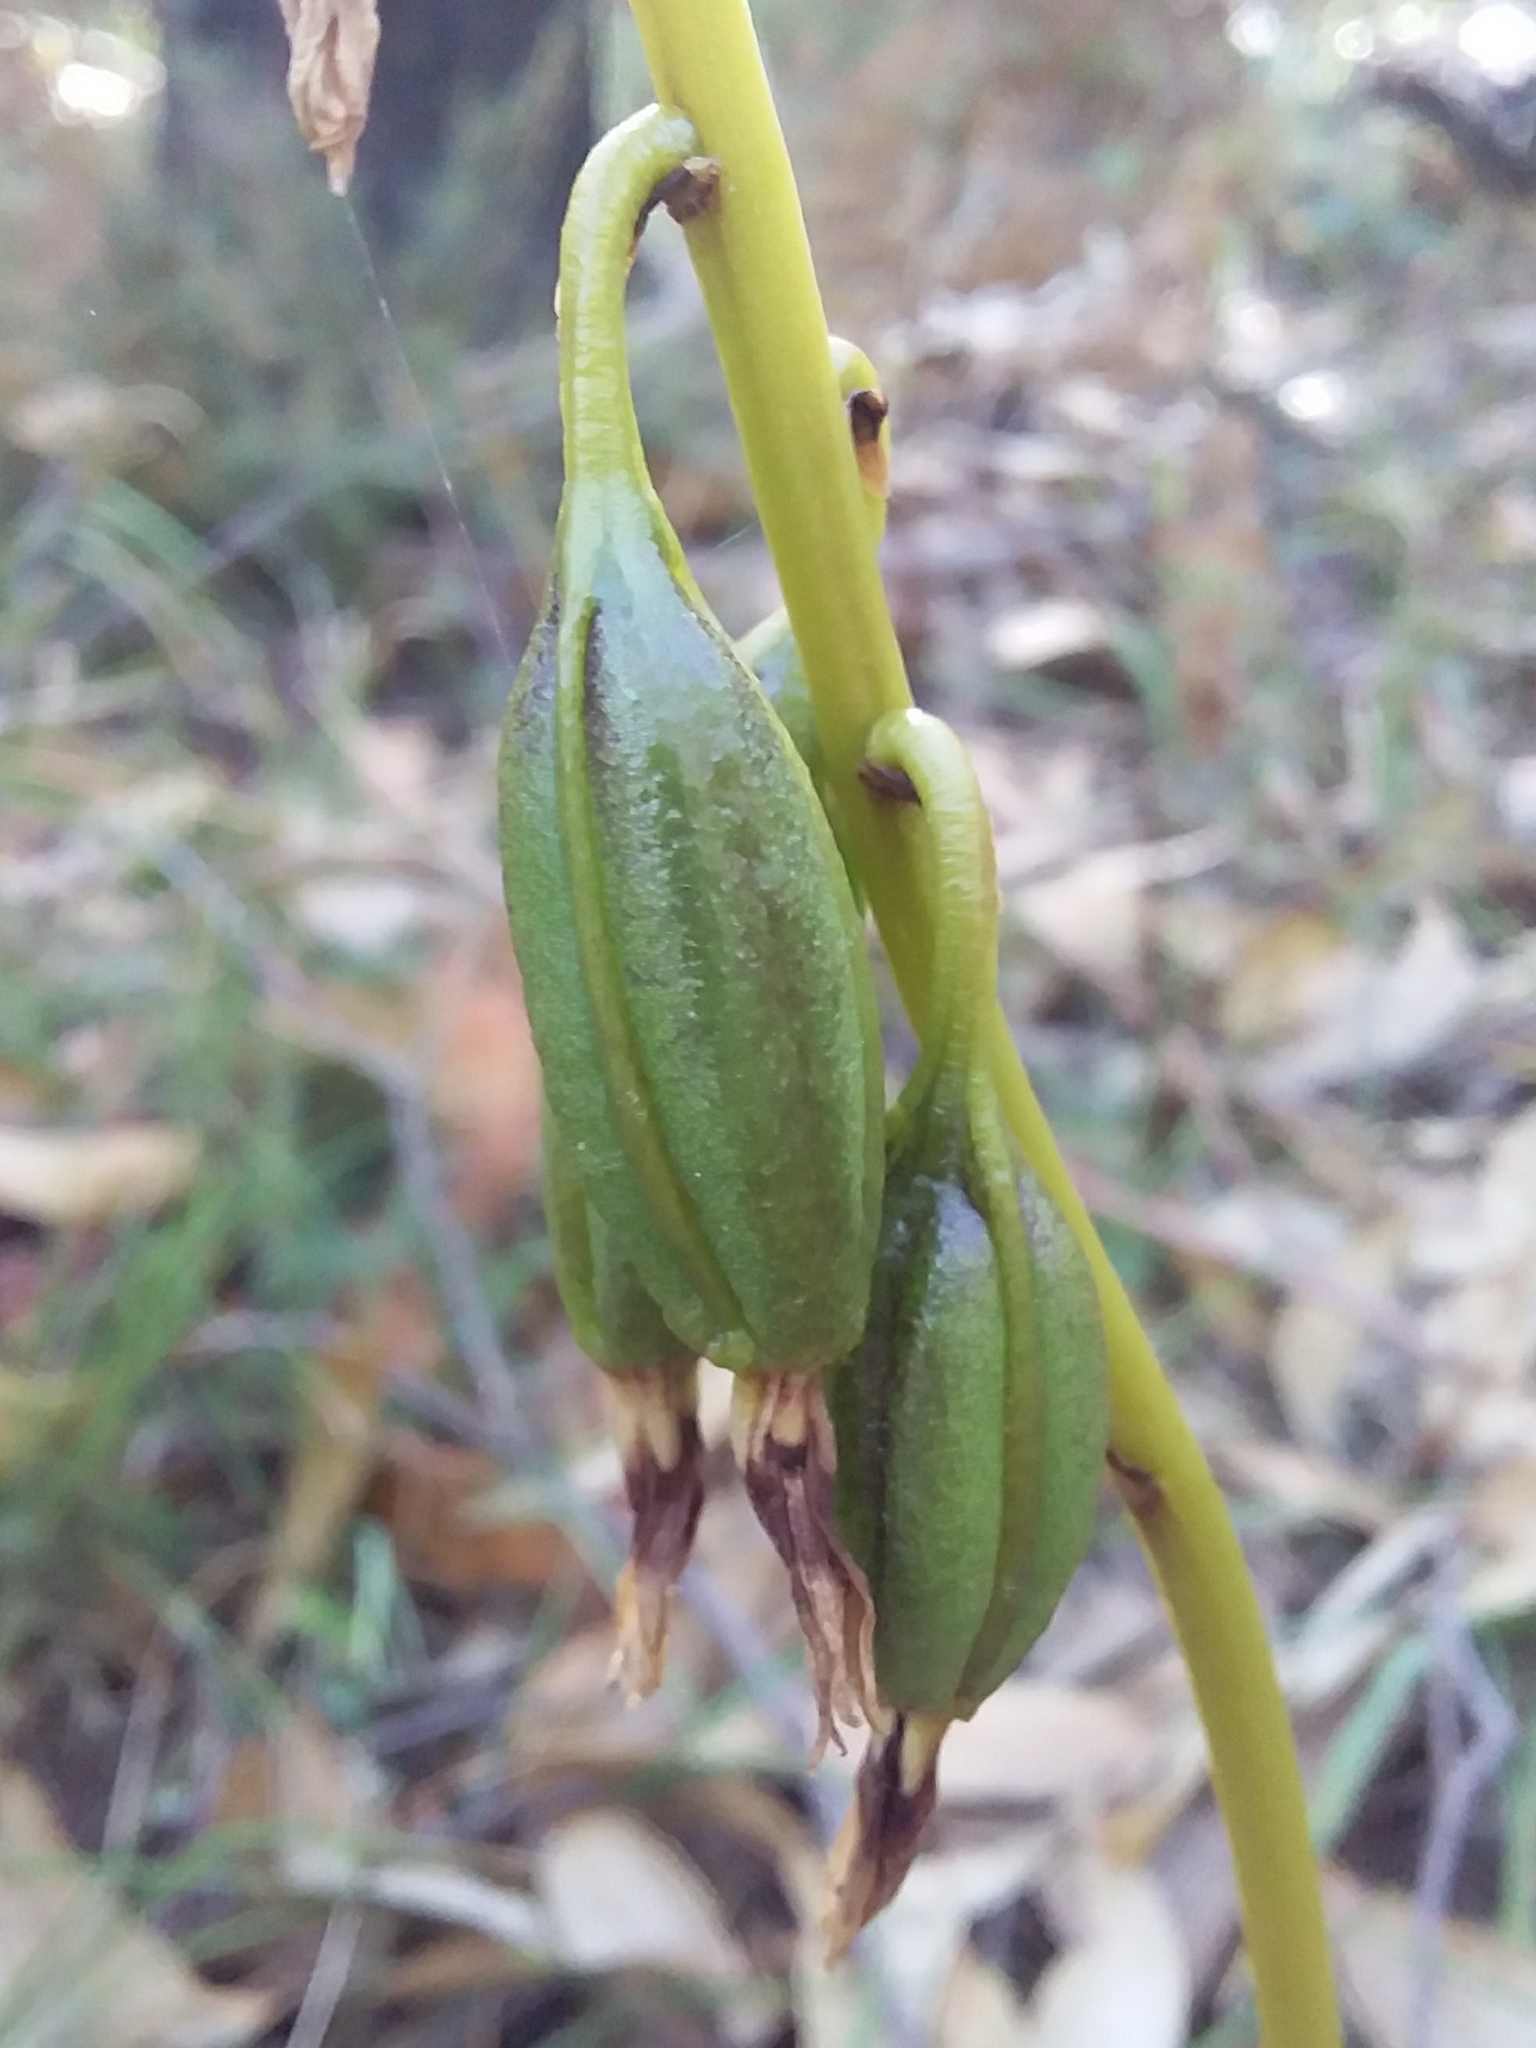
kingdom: Plantae
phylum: Tracheophyta
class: Liliopsida
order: Asparagales
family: Orchidaceae
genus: Dipodium
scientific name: Dipodium
